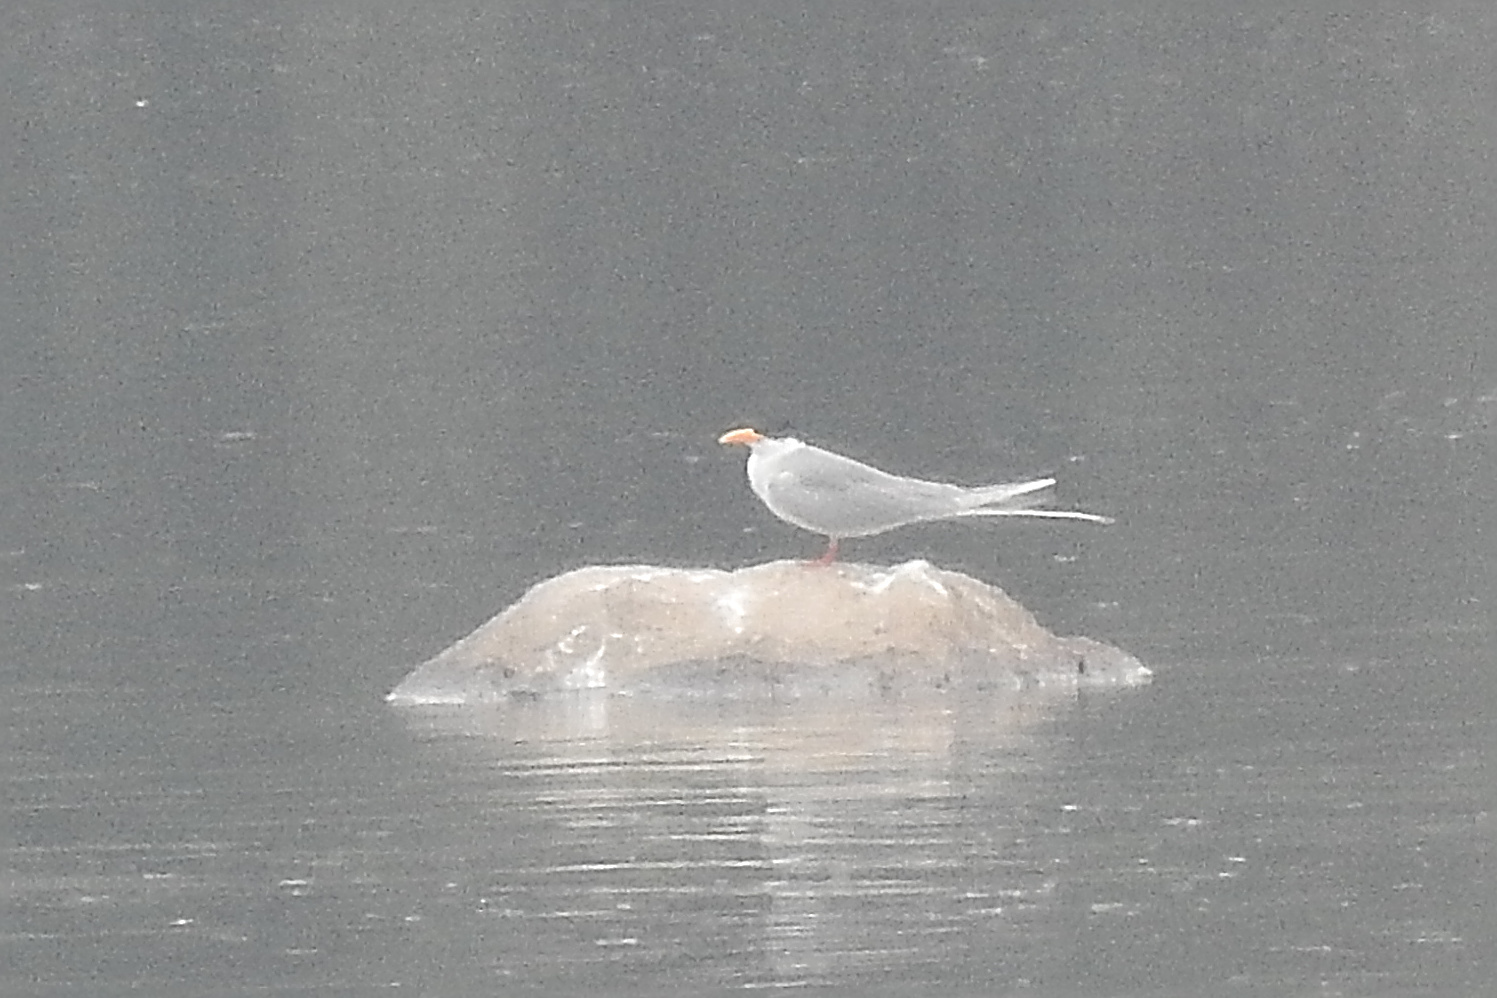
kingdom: Animalia
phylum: Chordata
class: Aves
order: Charadriiformes
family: Laridae
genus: Sterna
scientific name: Sterna aurantia
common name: River tern
